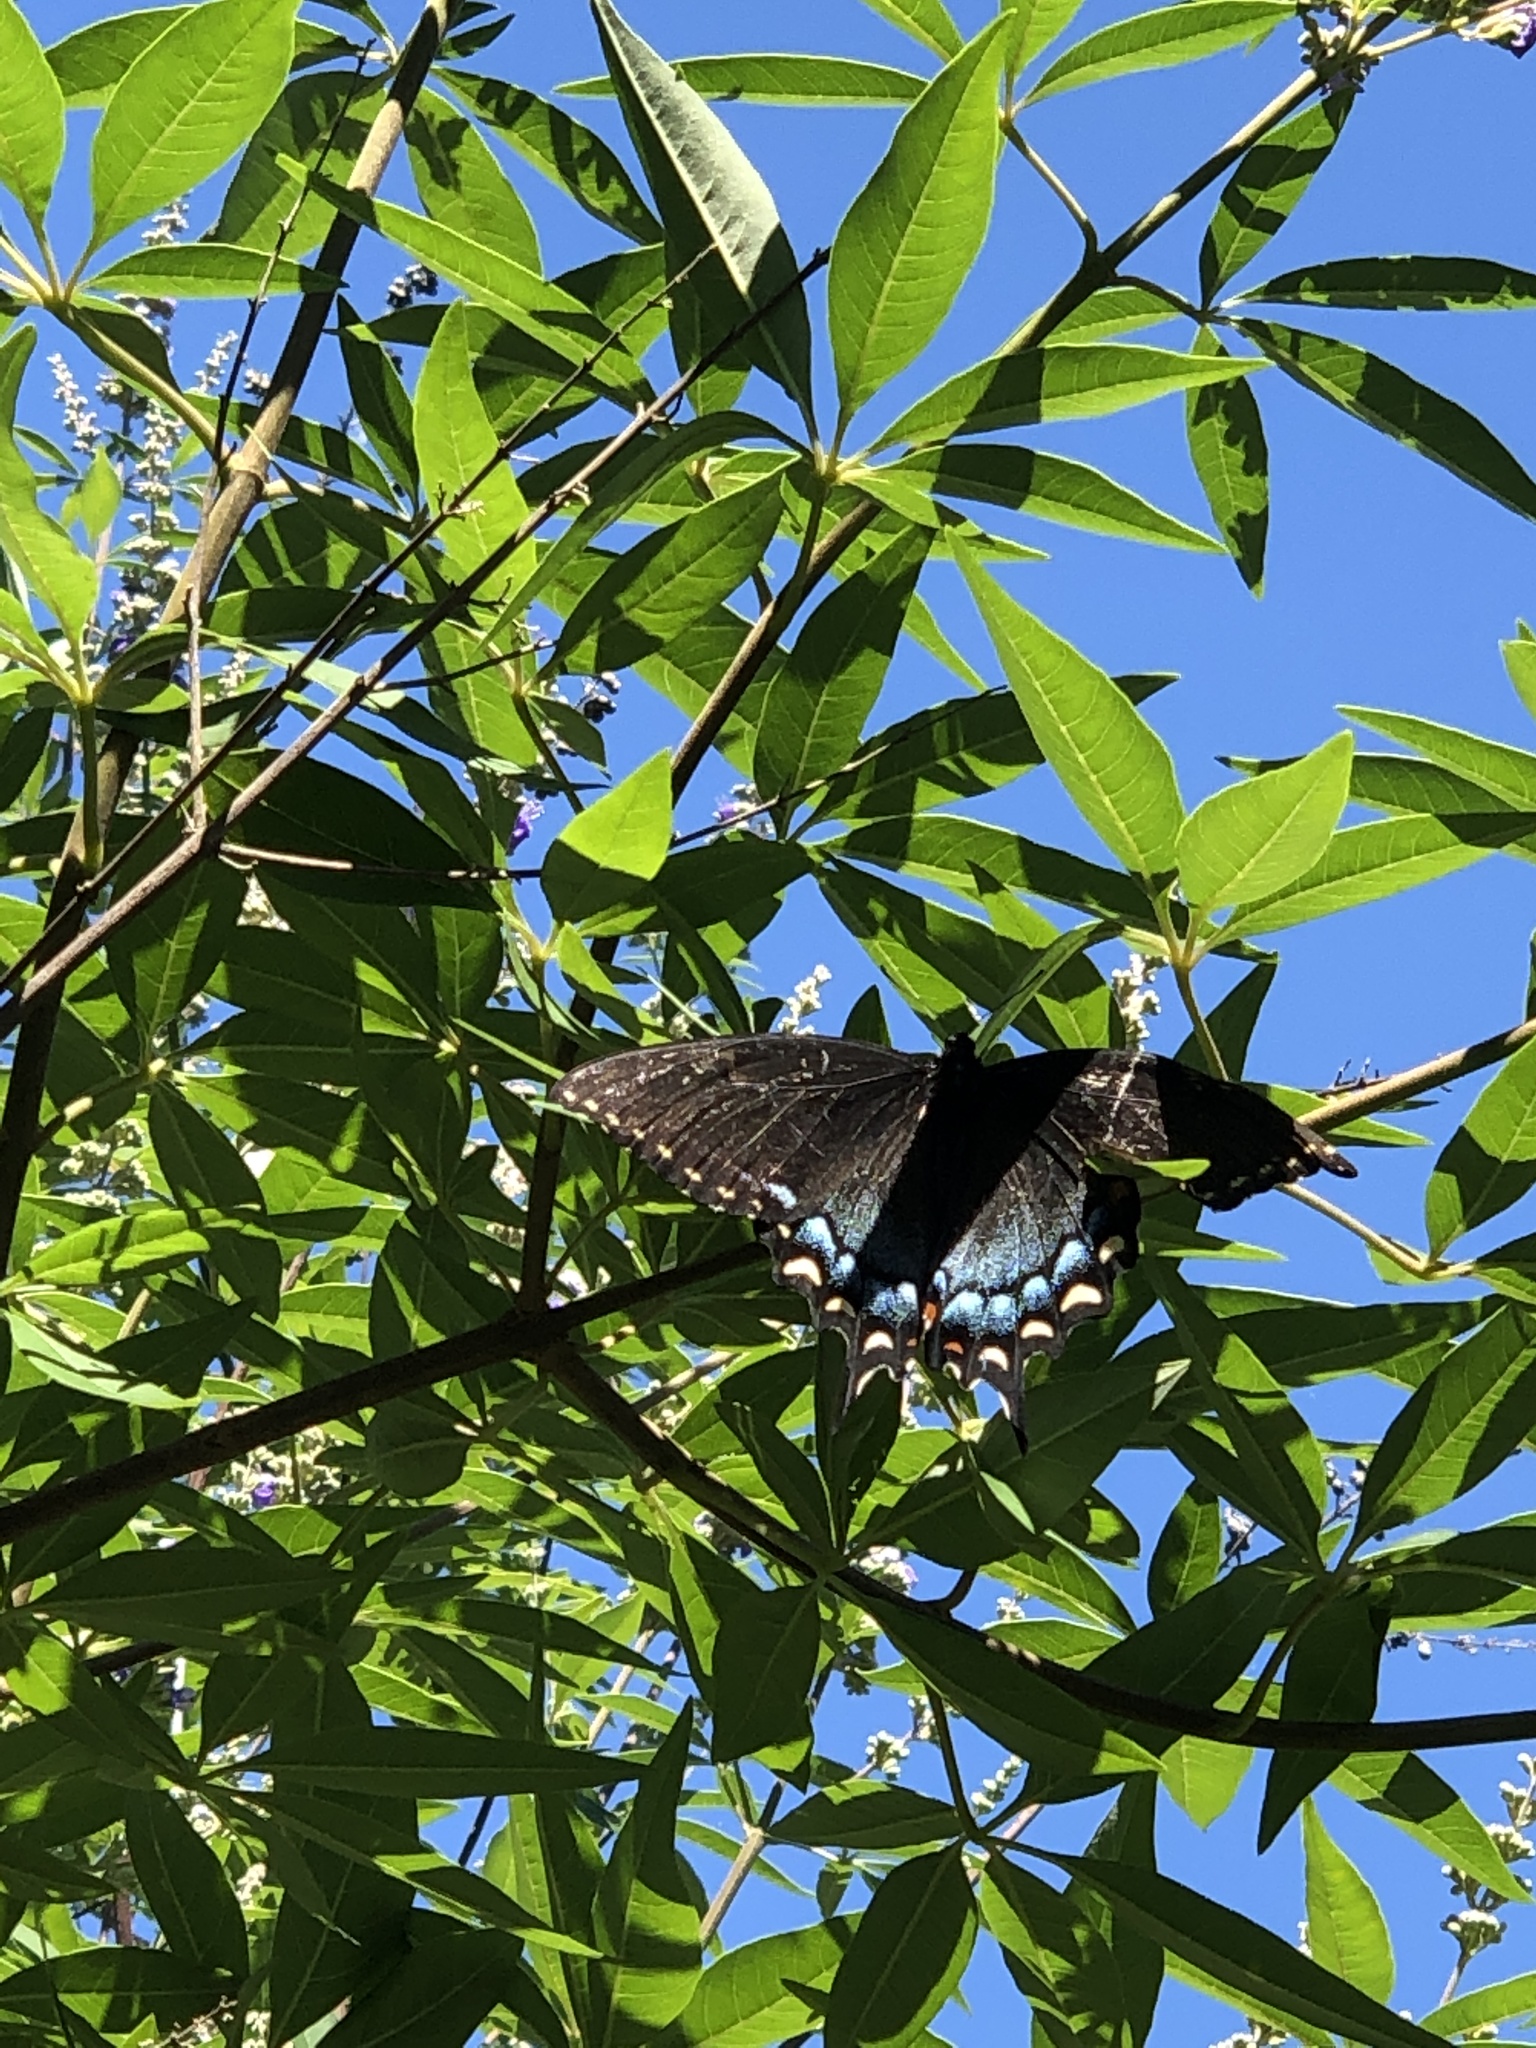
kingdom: Animalia
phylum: Arthropoda
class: Insecta
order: Lepidoptera
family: Papilionidae
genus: Papilio
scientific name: Papilio glaucus
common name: Tiger swallowtail
